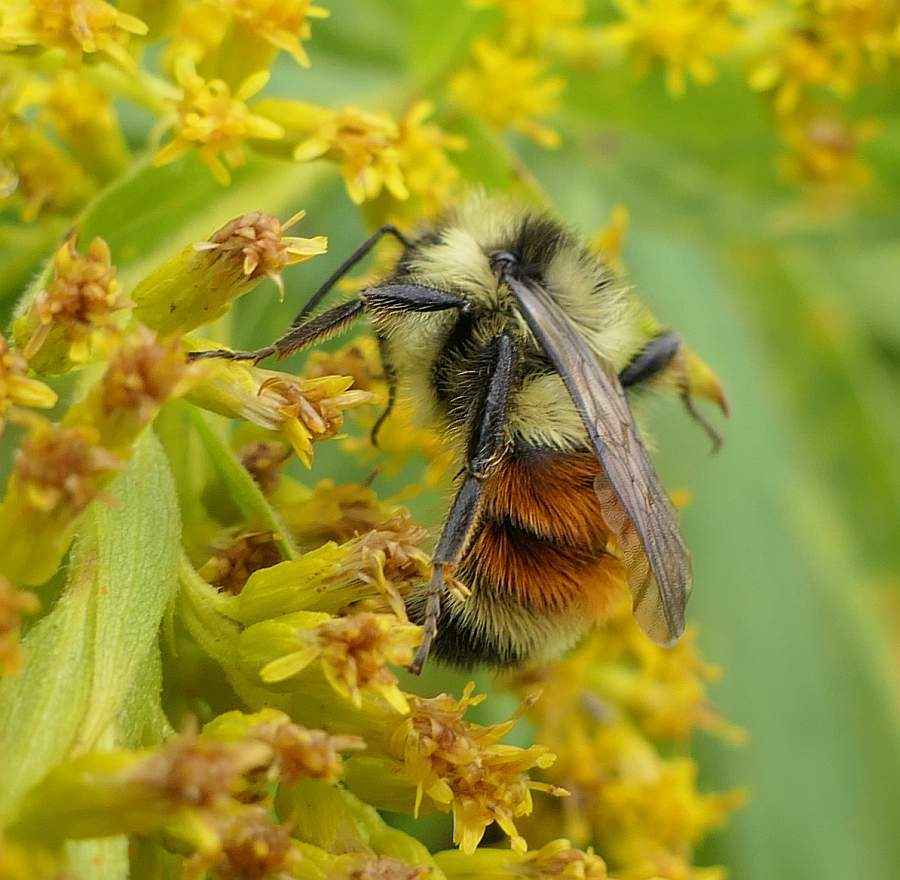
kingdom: Animalia
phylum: Arthropoda
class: Insecta
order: Hymenoptera
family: Apidae
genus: Bombus
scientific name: Bombus ternarius
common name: Tri-colored bumble bee
